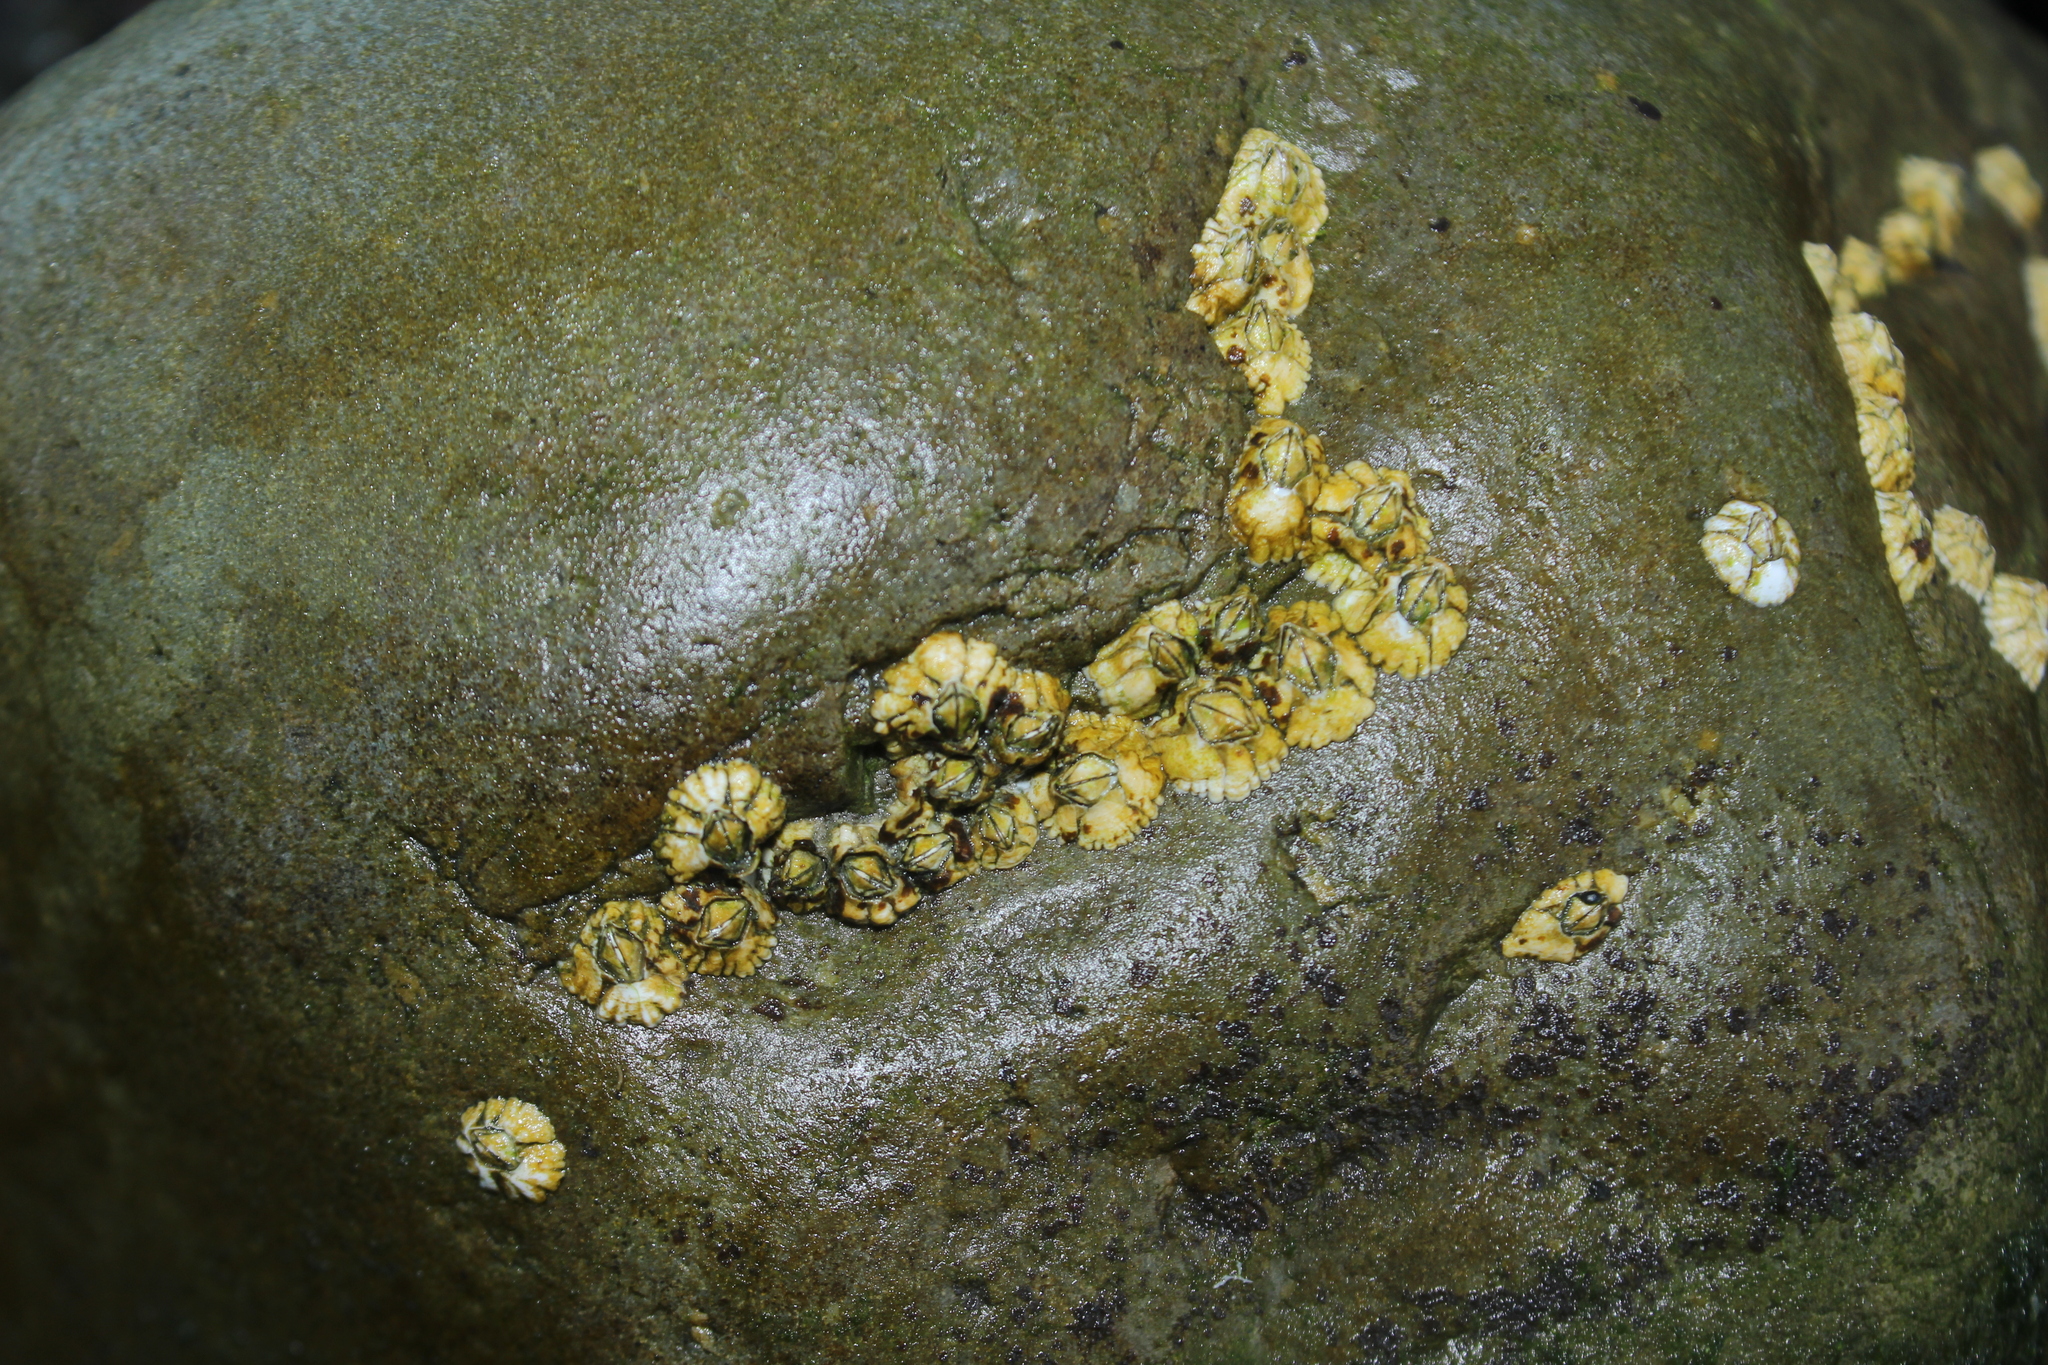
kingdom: Animalia
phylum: Arthropoda
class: Maxillopoda
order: Sessilia
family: Archaeobalanidae
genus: Semibalanus
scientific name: Semibalanus balanoides
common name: Acorn barnacle
